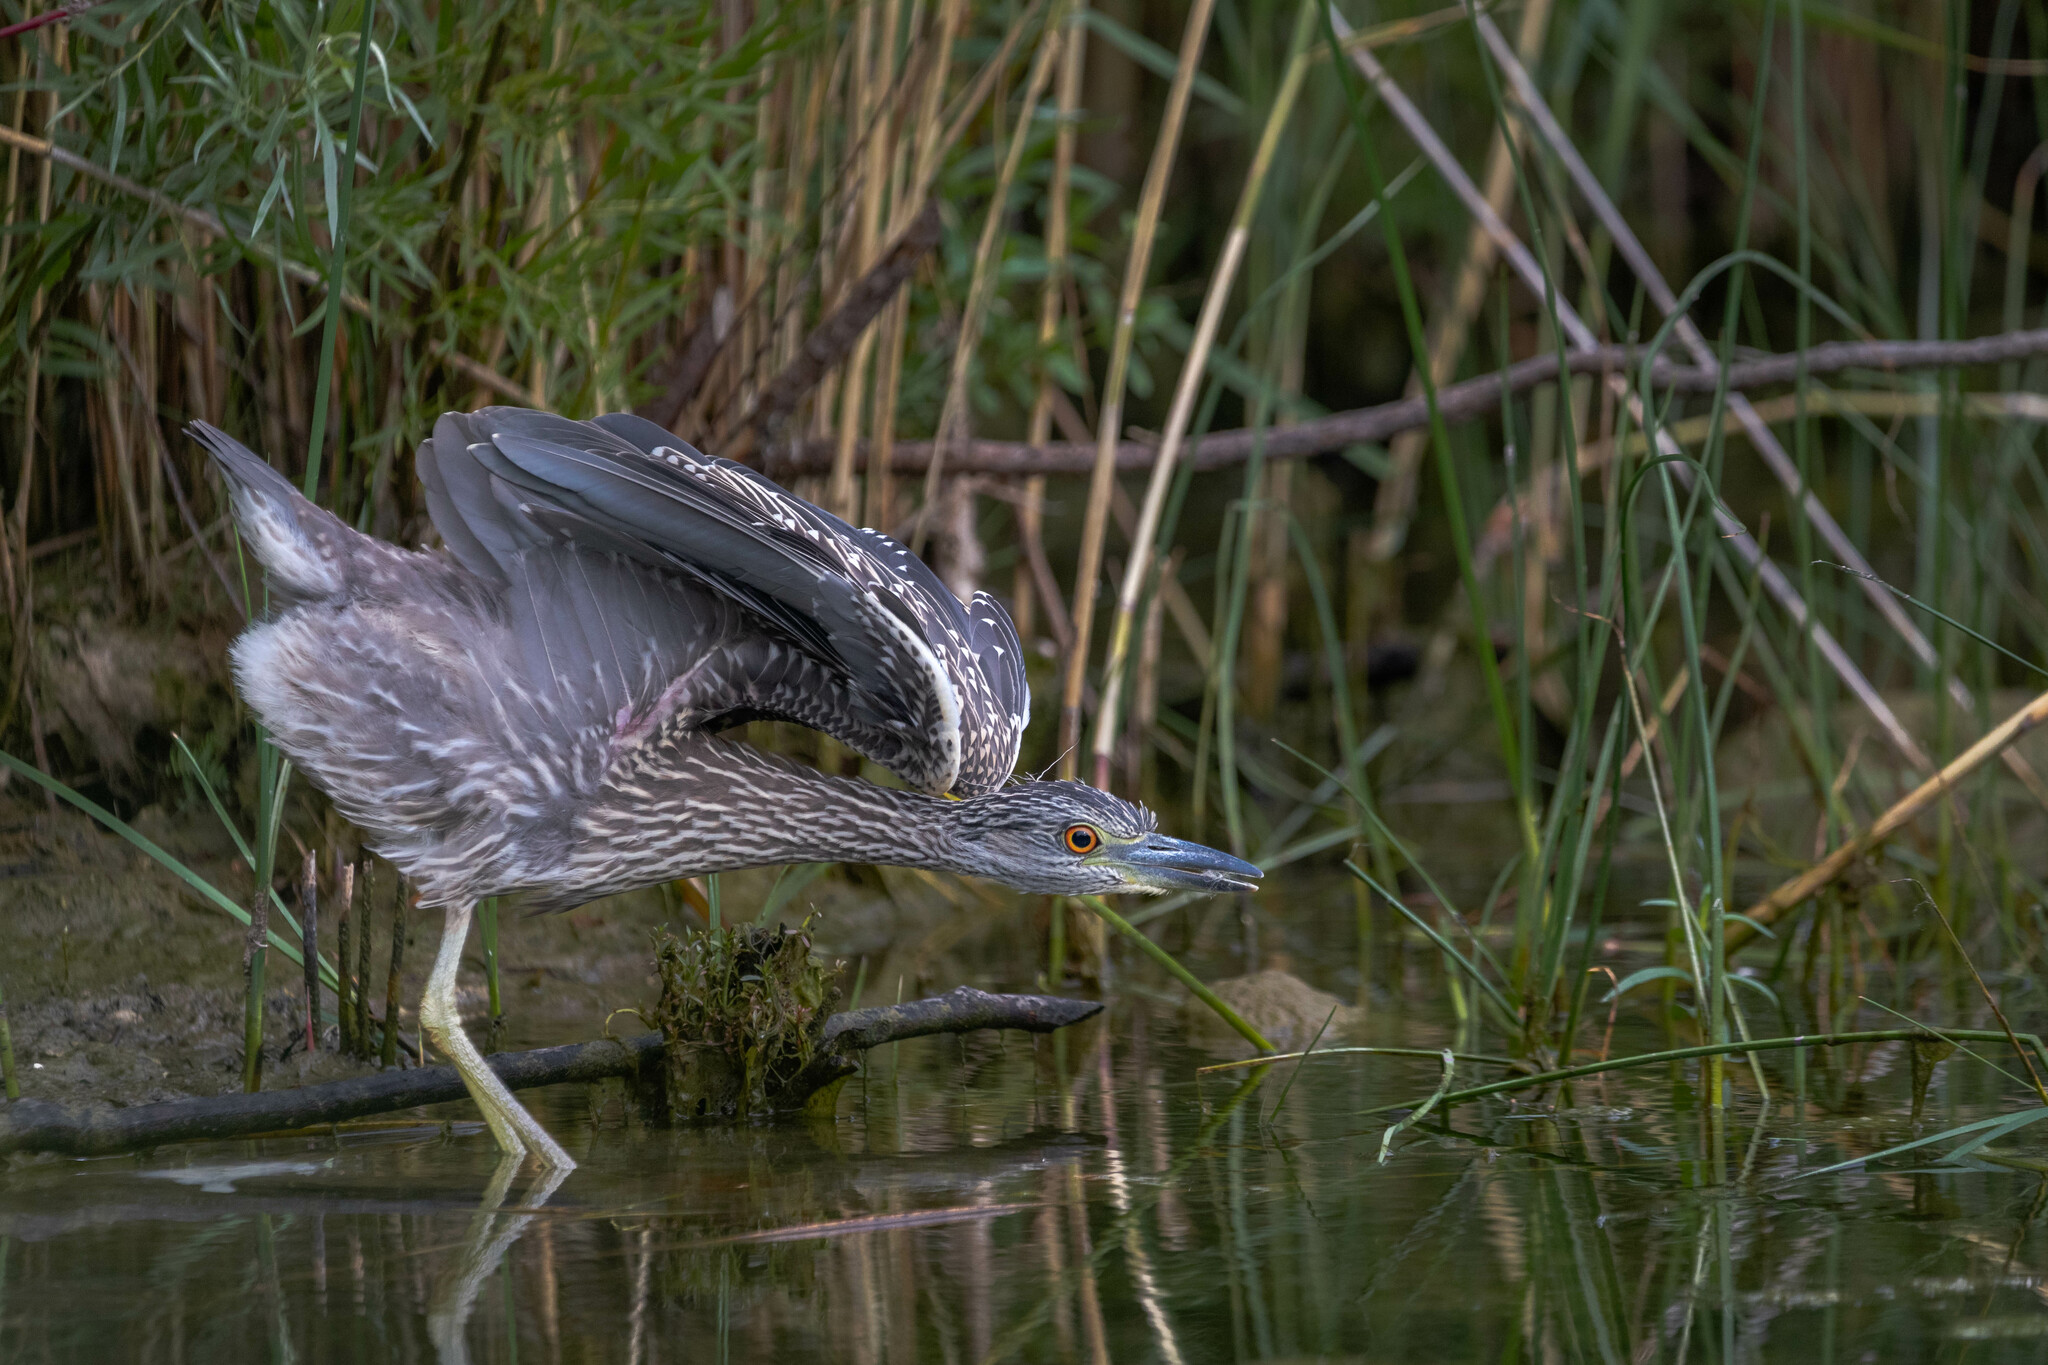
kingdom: Animalia
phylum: Chordata
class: Aves
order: Pelecaniformes
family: Ardeidae
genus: Nyctanassa
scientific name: Nyctanassa violacea
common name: Yellow-crowned night heron
